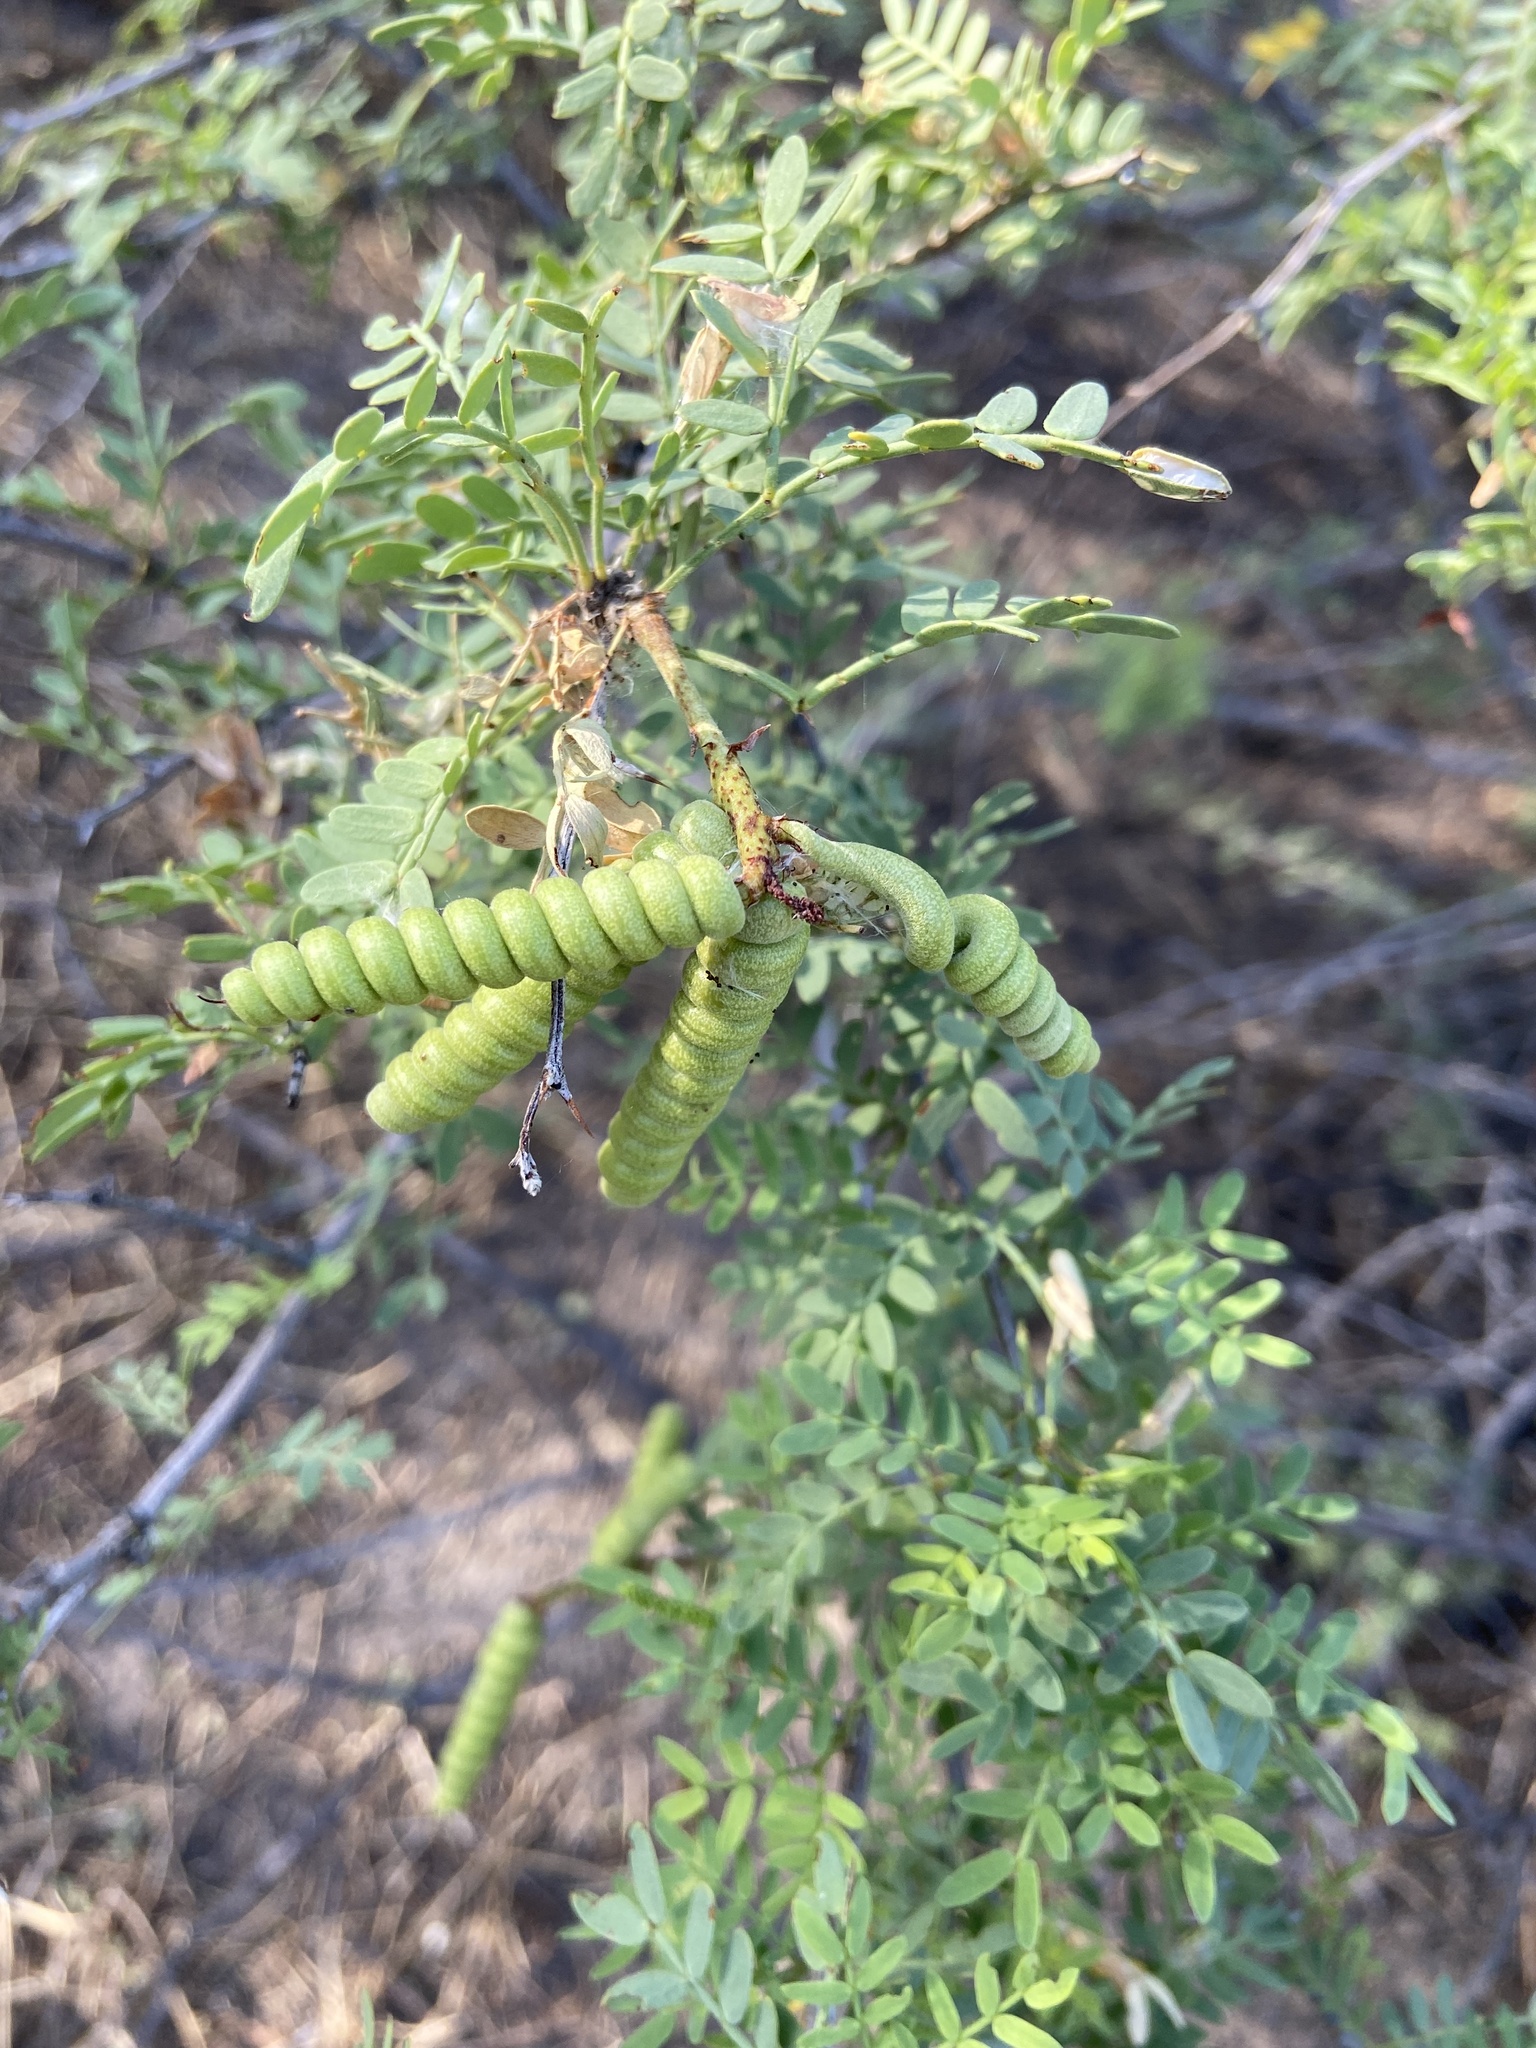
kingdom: Plantae
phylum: Tracheophyta
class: Magnoliopsida
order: Fabales
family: Fabaceae
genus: Prosopis
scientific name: Prosopis pubescens
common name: Screw-bean
